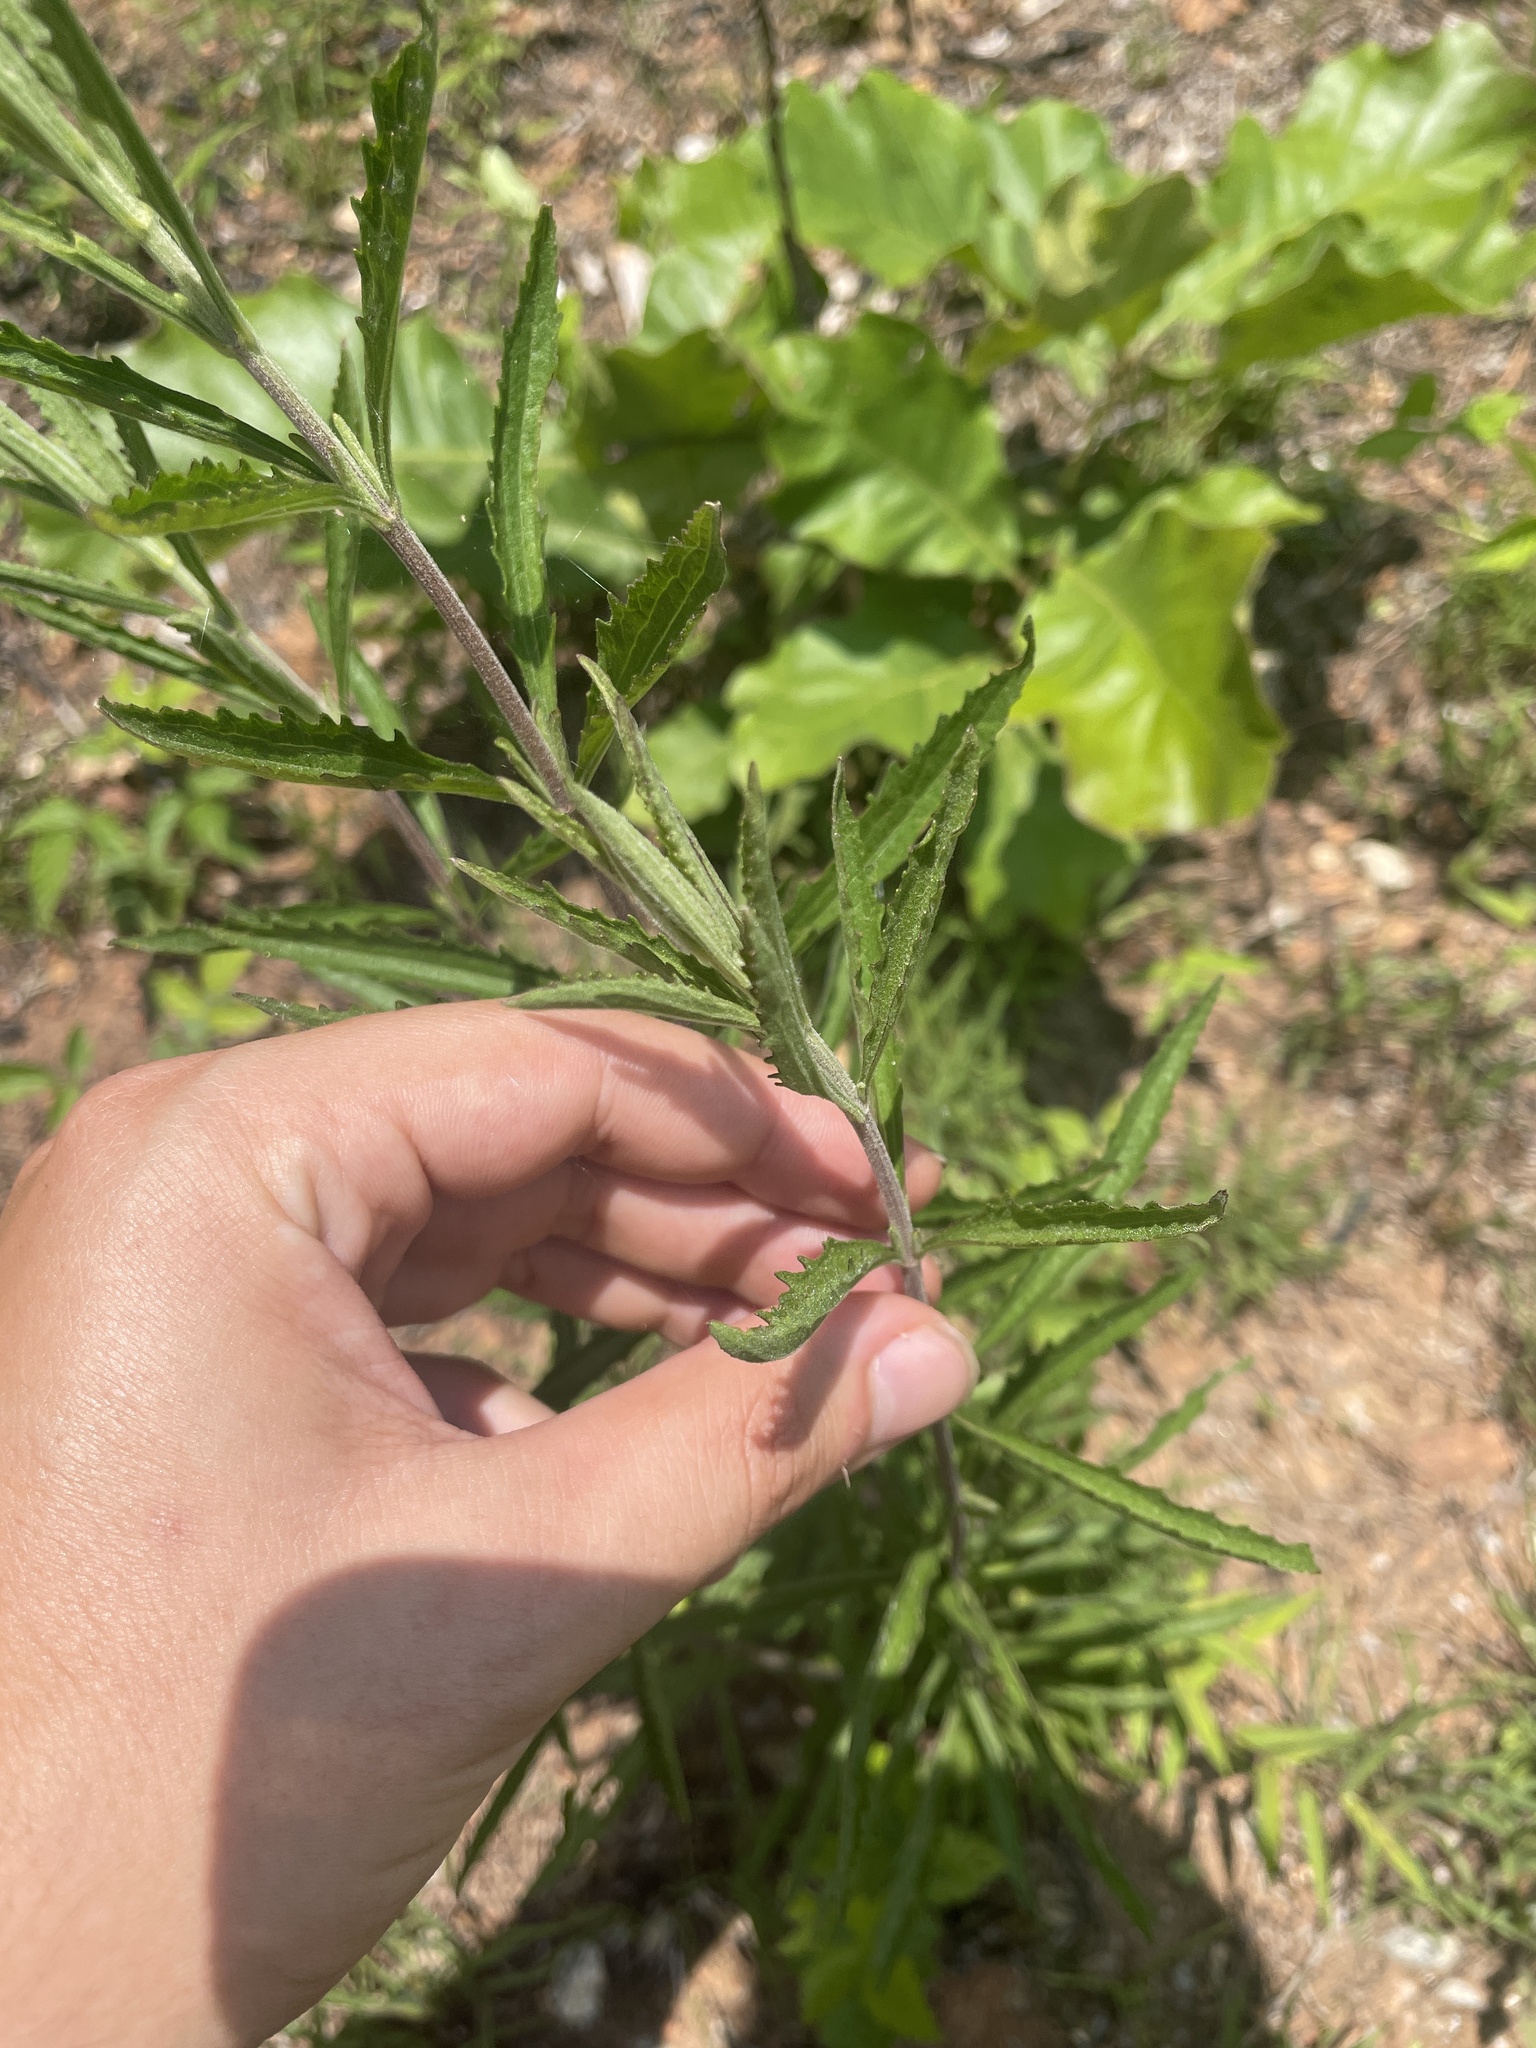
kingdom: Plantae
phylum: Tracheophyta
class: Magnoliopsida
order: Asterales
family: Asteraceae
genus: Eupatorium
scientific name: Eupatorium torreyanum
